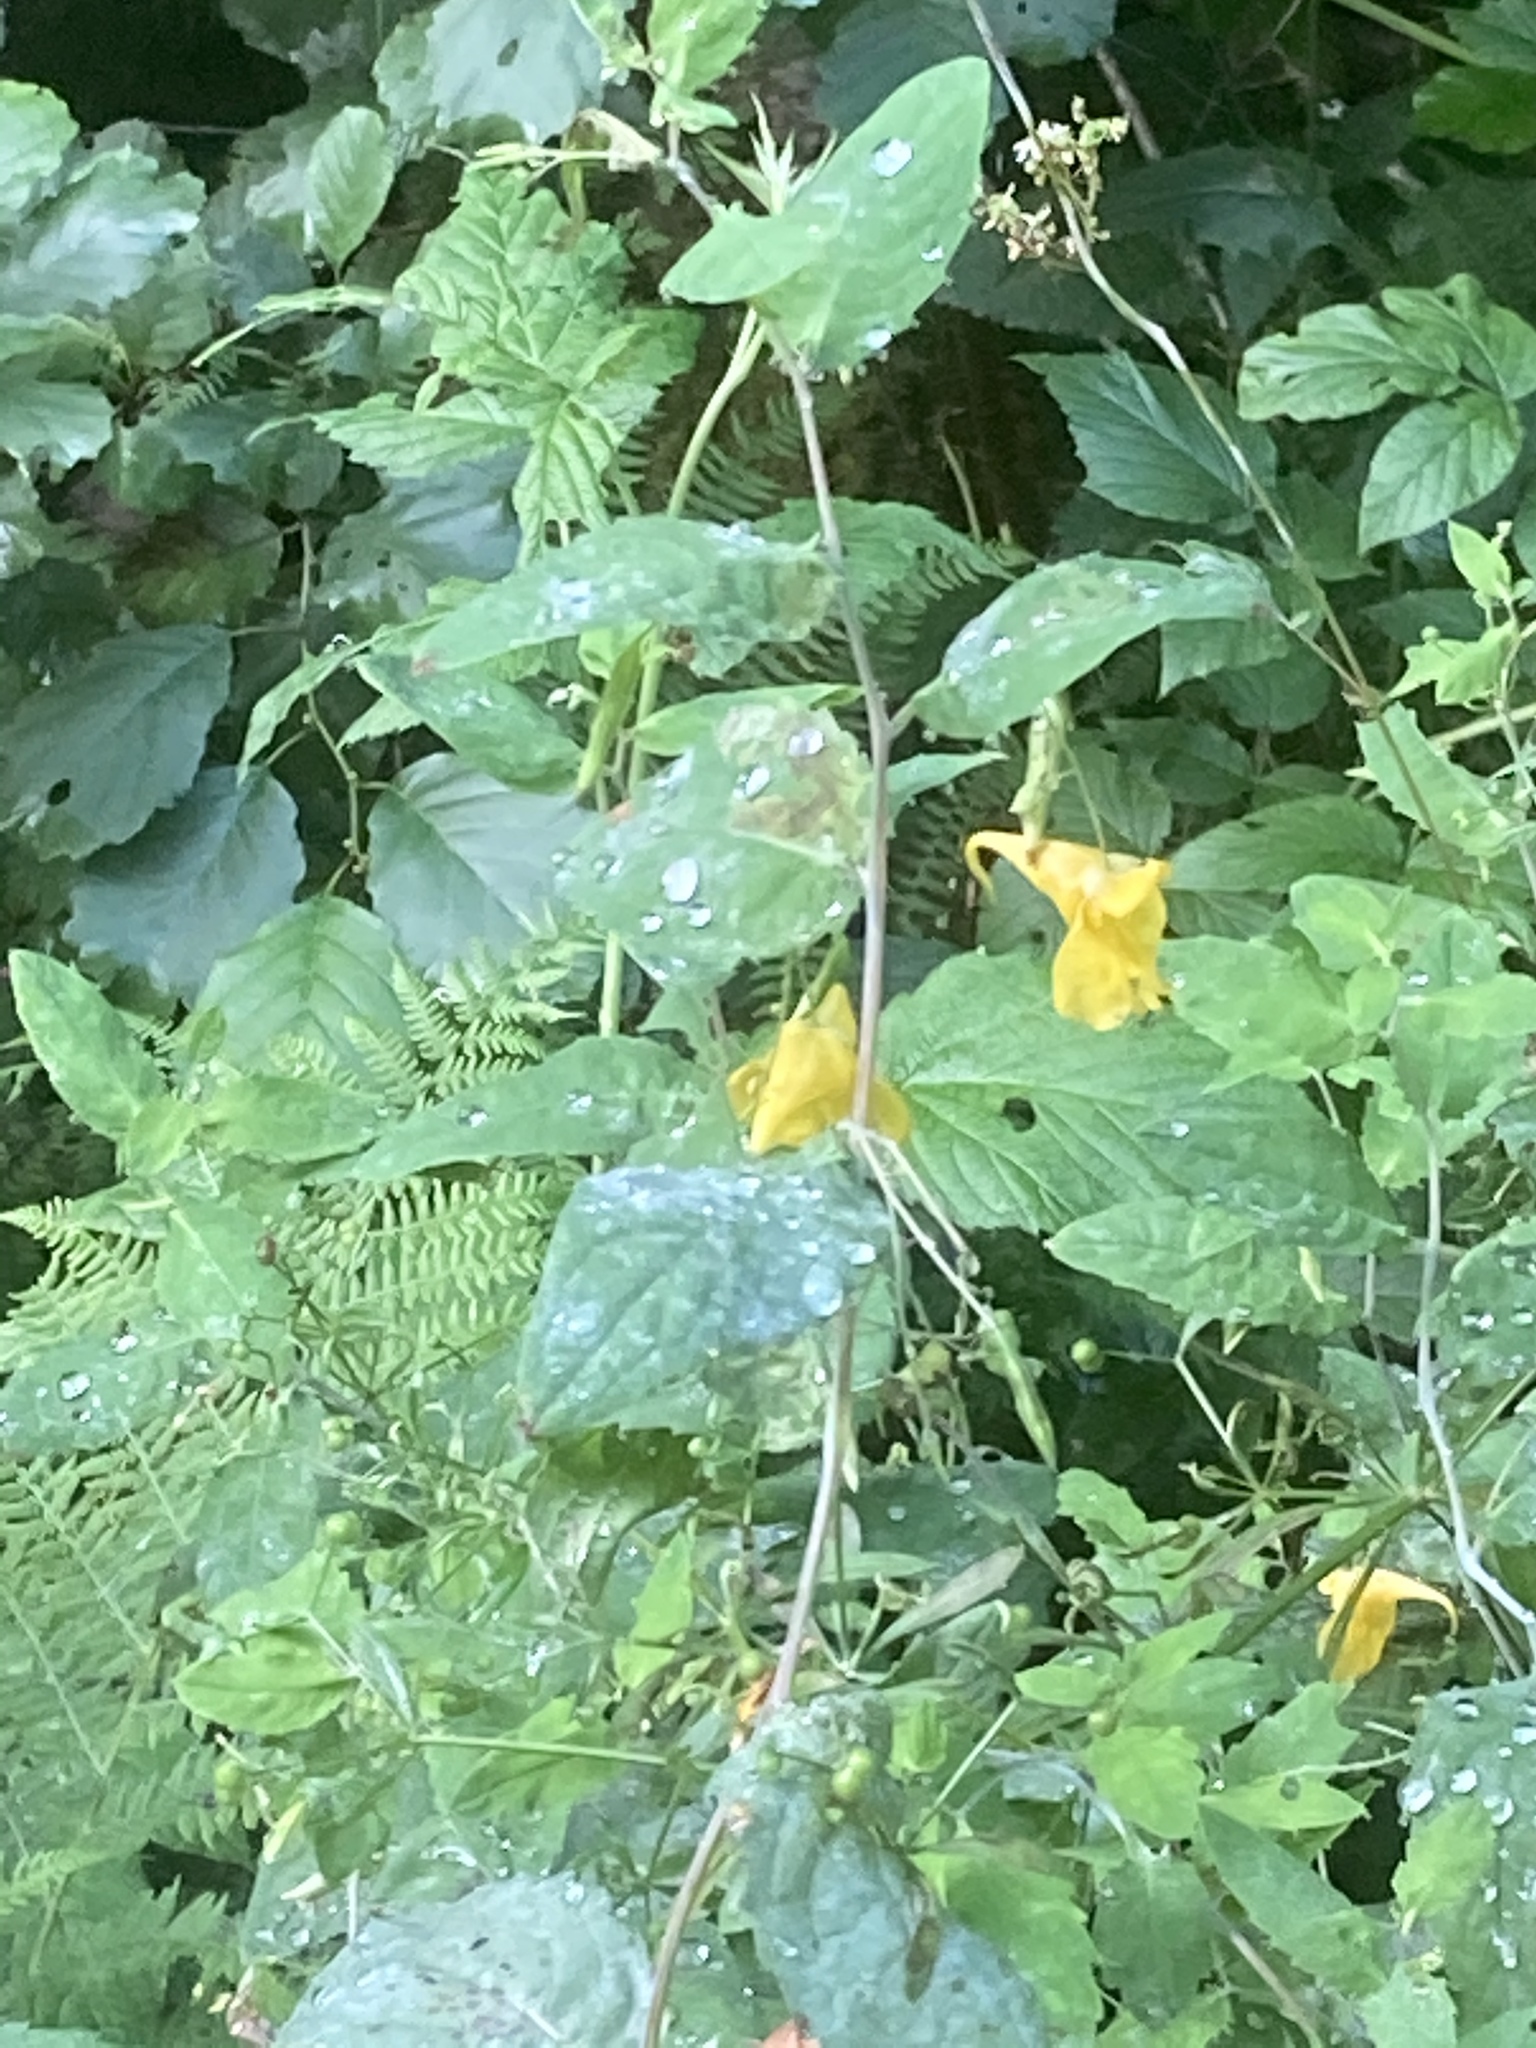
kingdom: Plantae
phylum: Tracheophyta
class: Magnoliopsida
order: Ericales
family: Balsaminaceae
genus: Impatiens
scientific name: Impatiens noli-tangere
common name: Touch-me-not balsam
